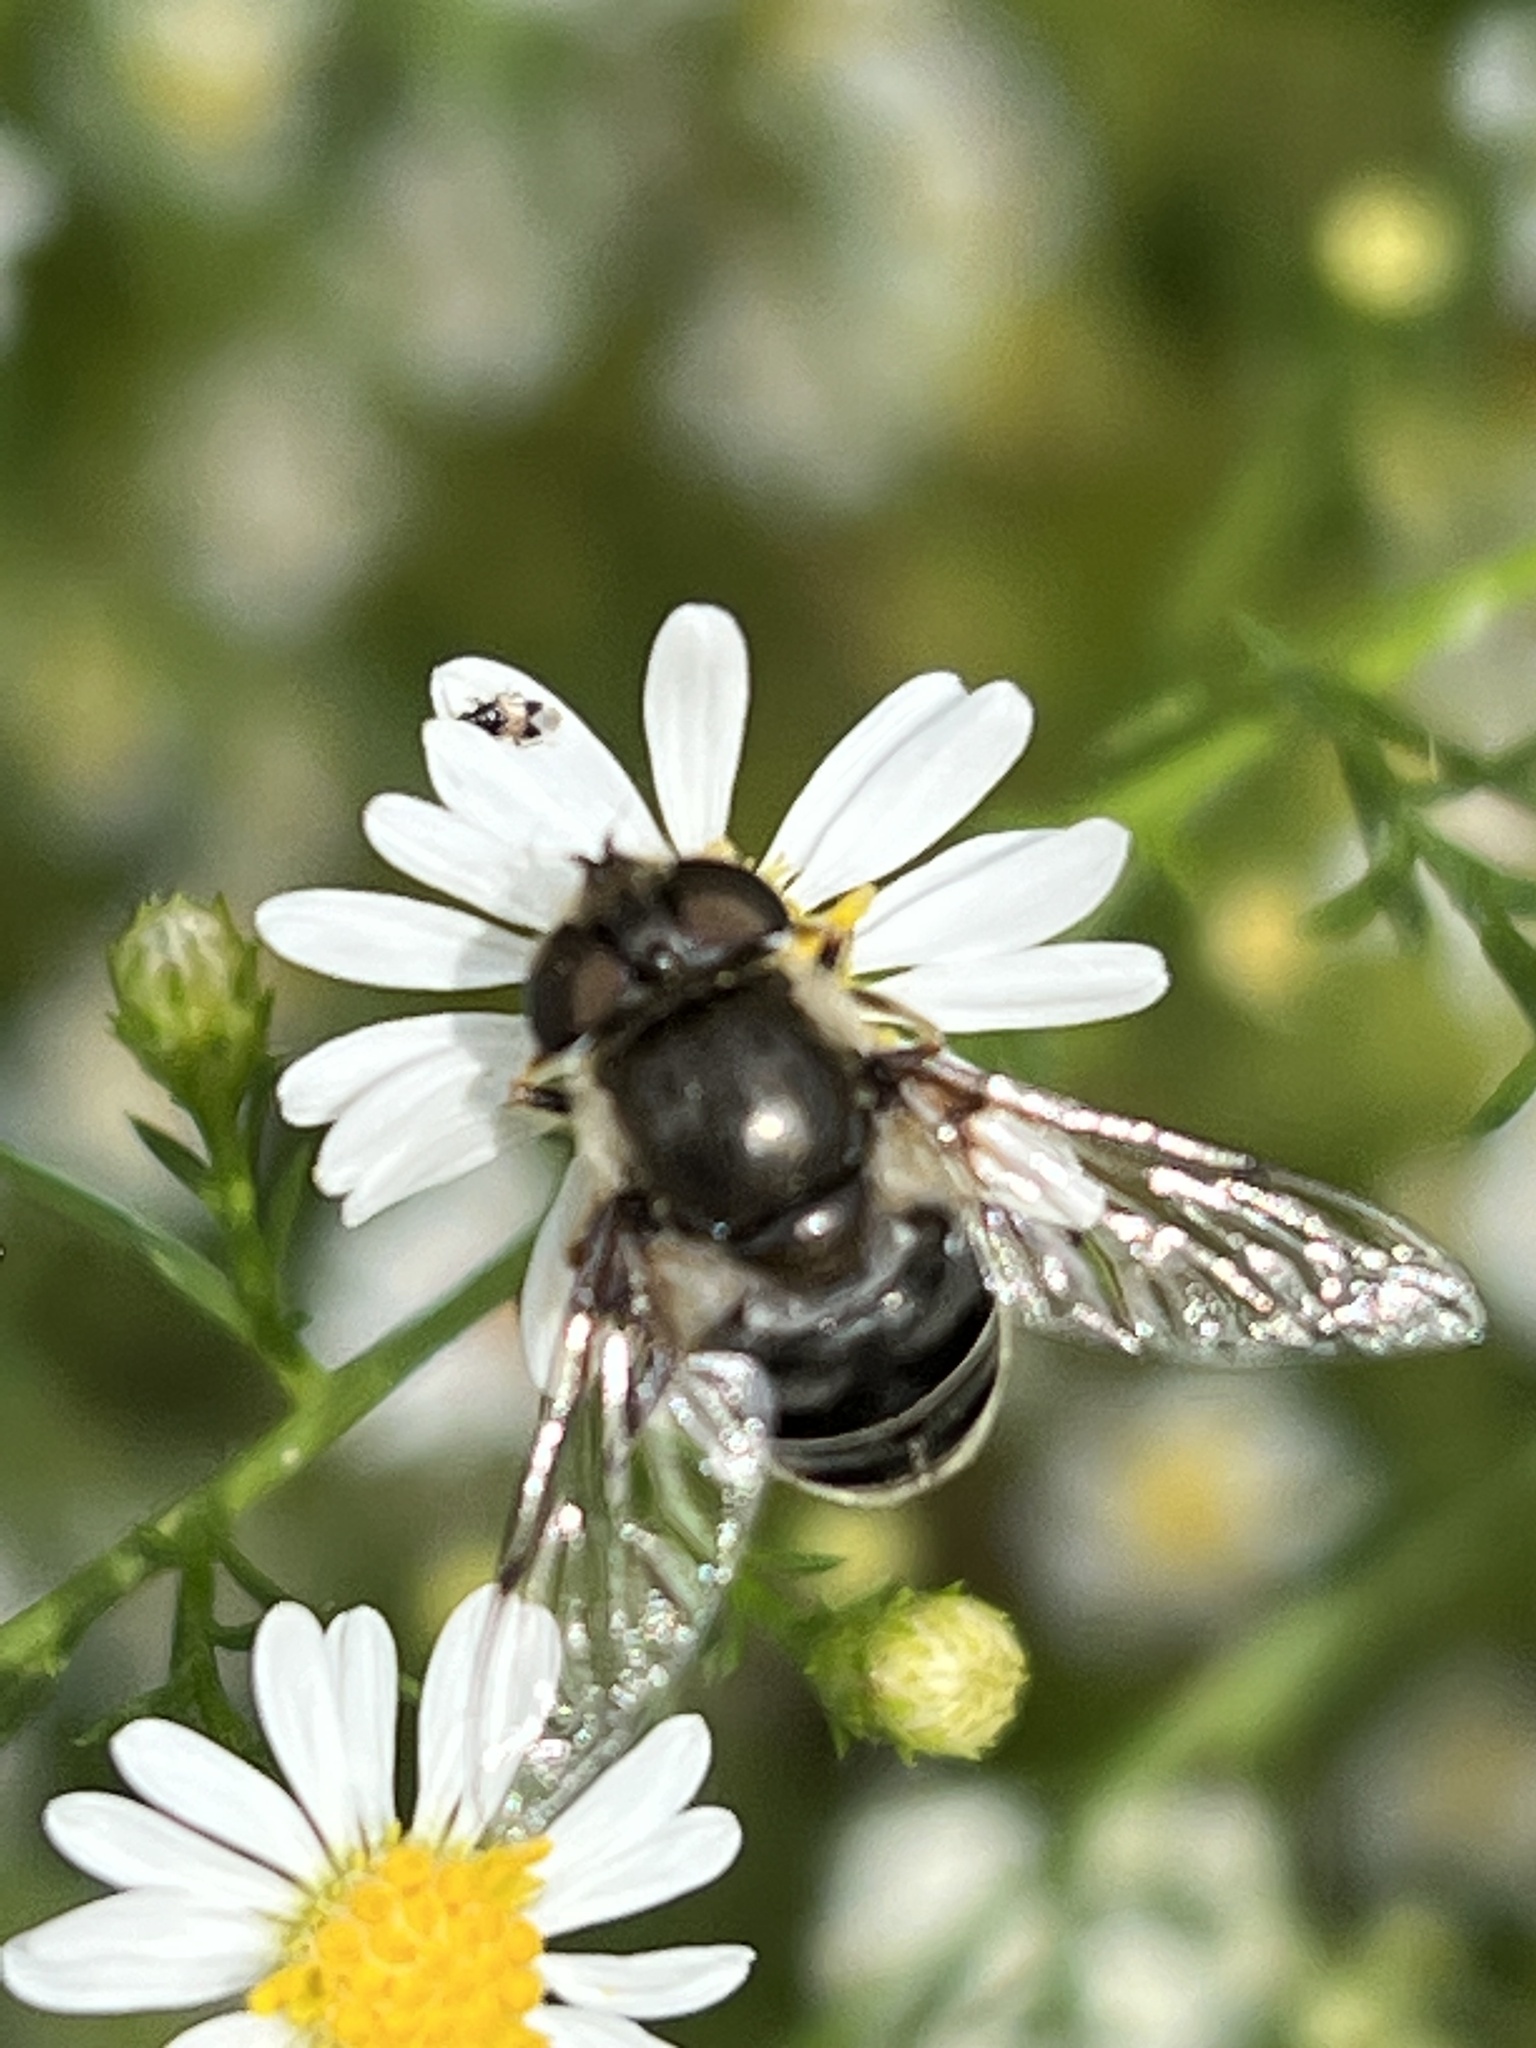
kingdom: Animalia
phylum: Arthropoda
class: Insecta
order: Diptera
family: Syrphidae
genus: Eristalis
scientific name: Eristalis dimidiata
